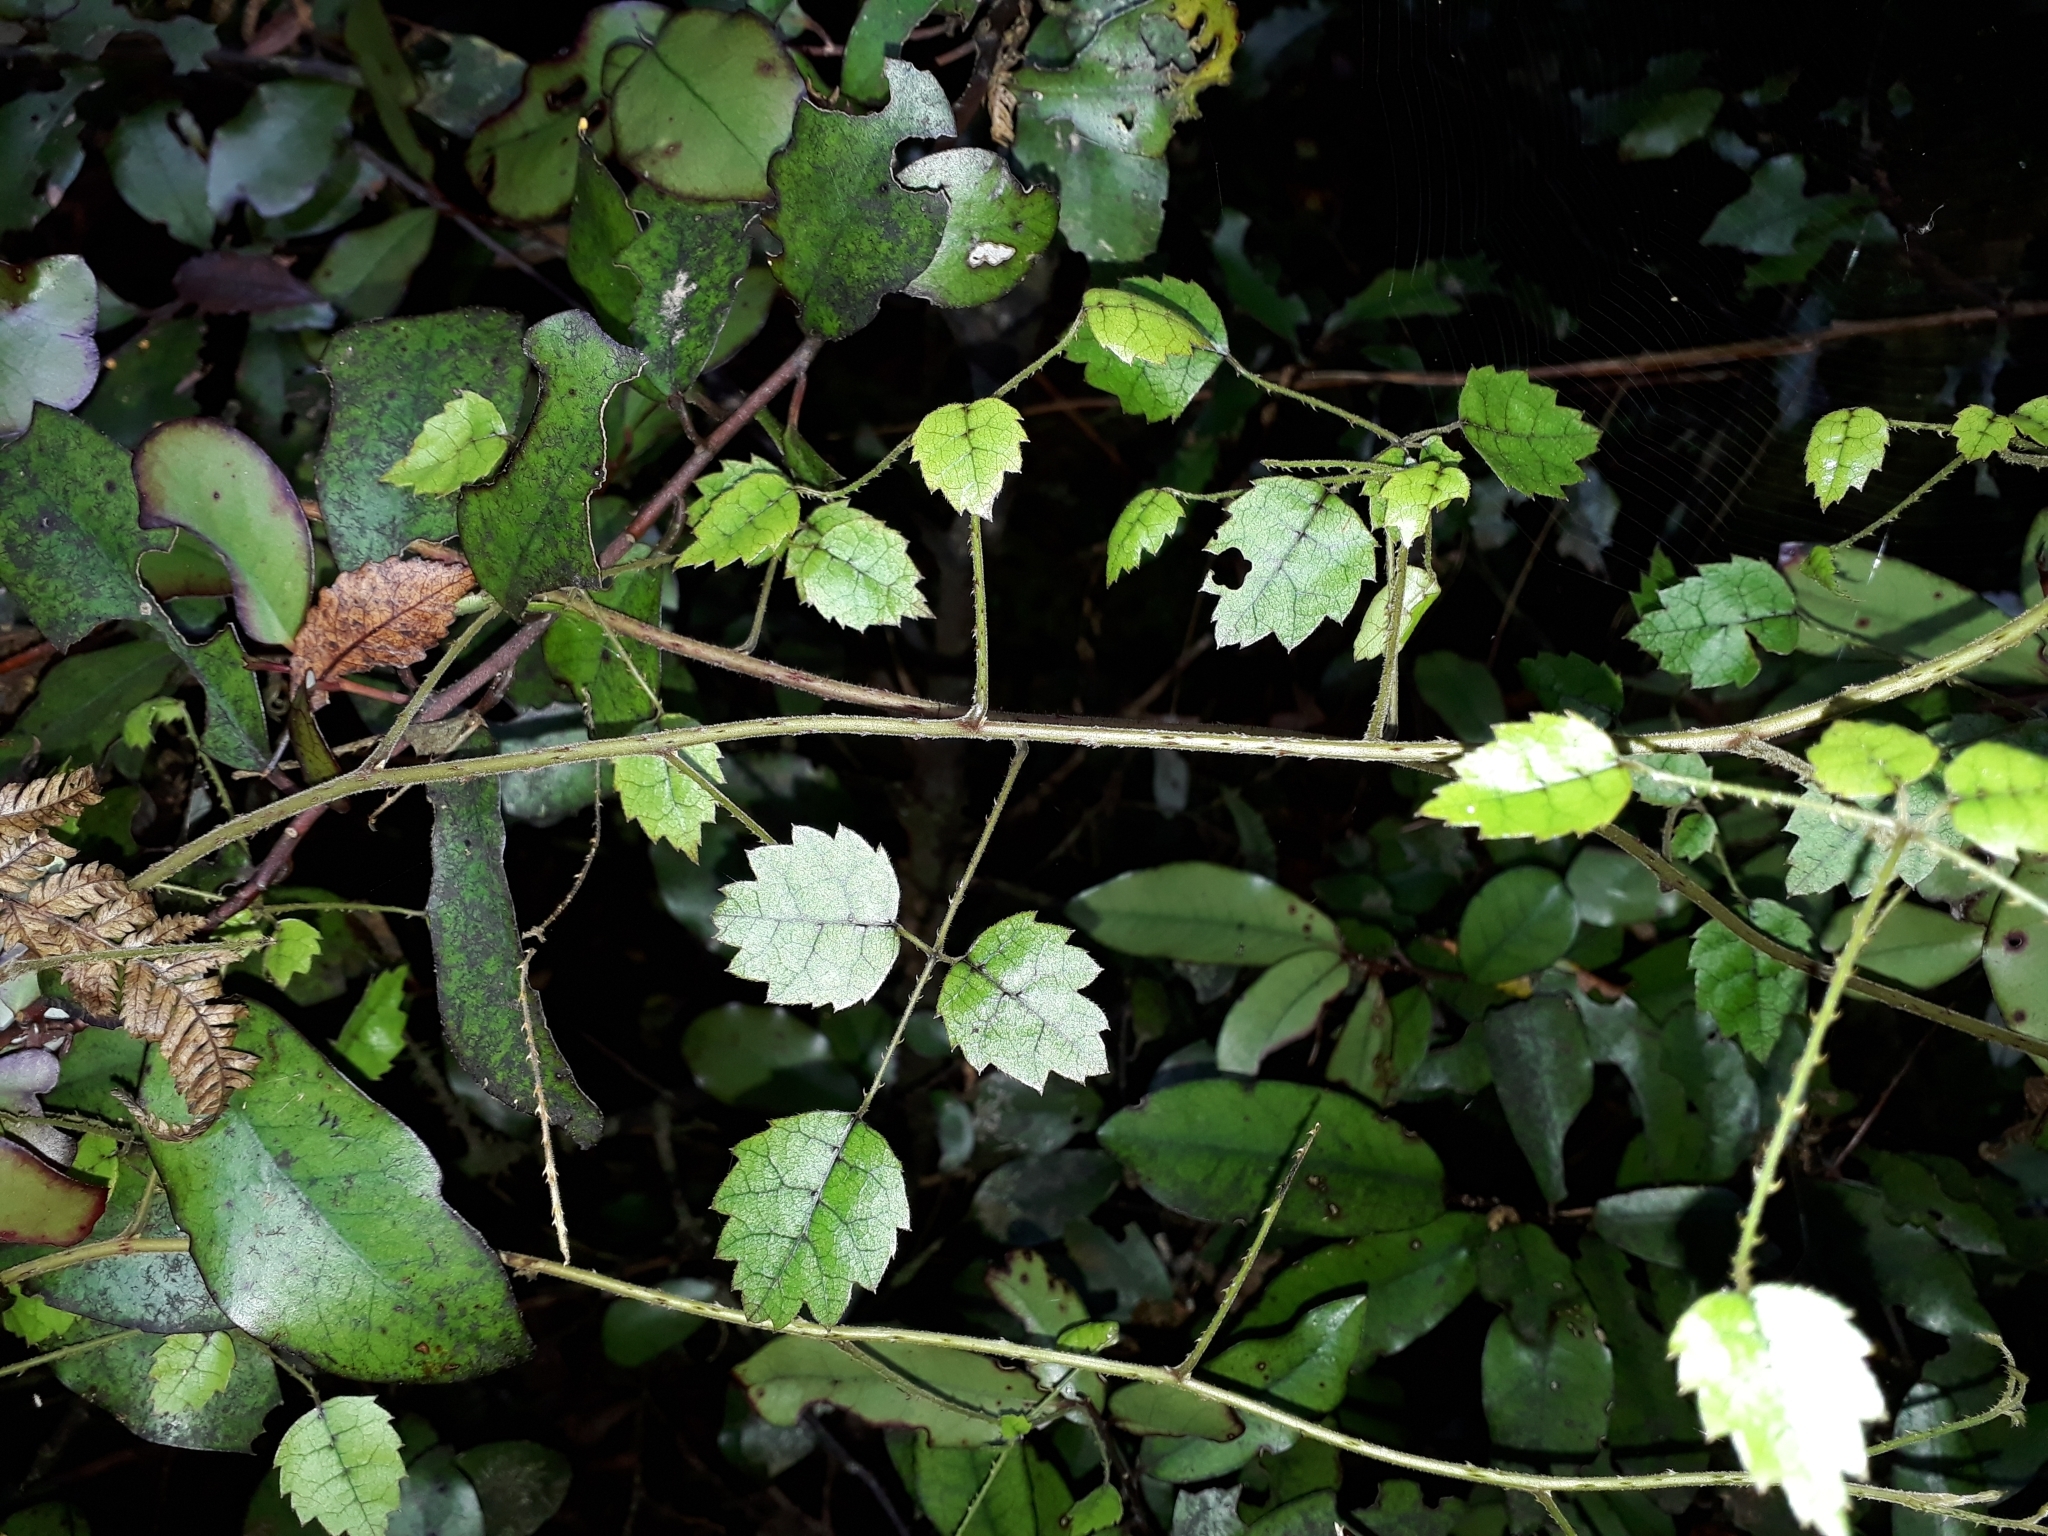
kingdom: Plantae
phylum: Tracheophyta
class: Magnoliopsida
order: Rosales
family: Rosaceae
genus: Rubus
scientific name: Rubus australis
